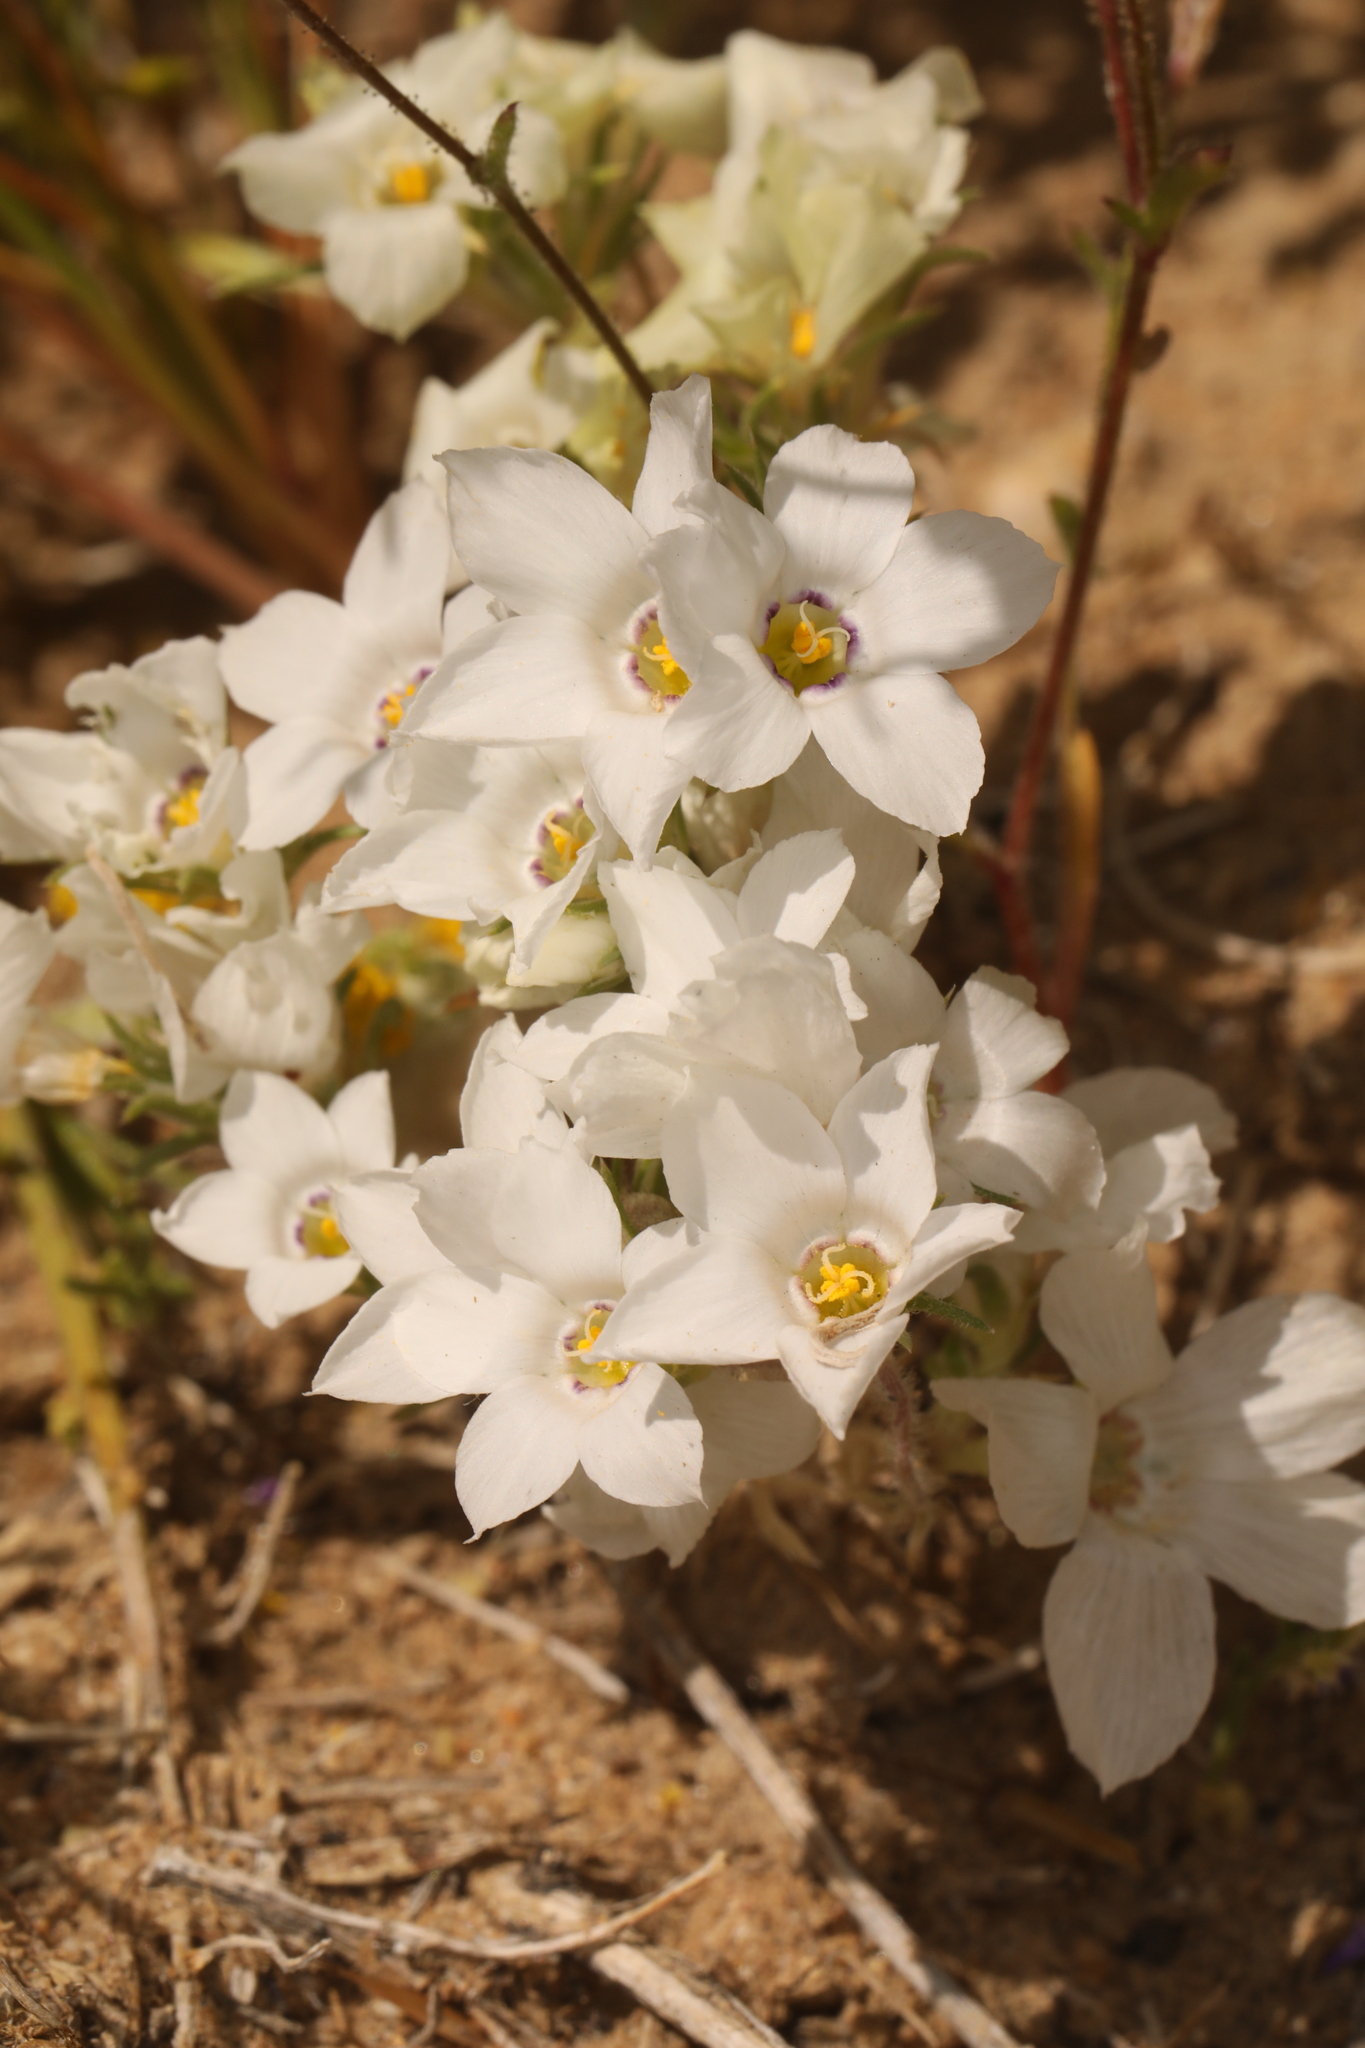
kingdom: Plantae
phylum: Tracheophyta
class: Magnoliopsida
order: Ericales
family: Polemoniaceae
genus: Linanthus
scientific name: Linanthus parryae
